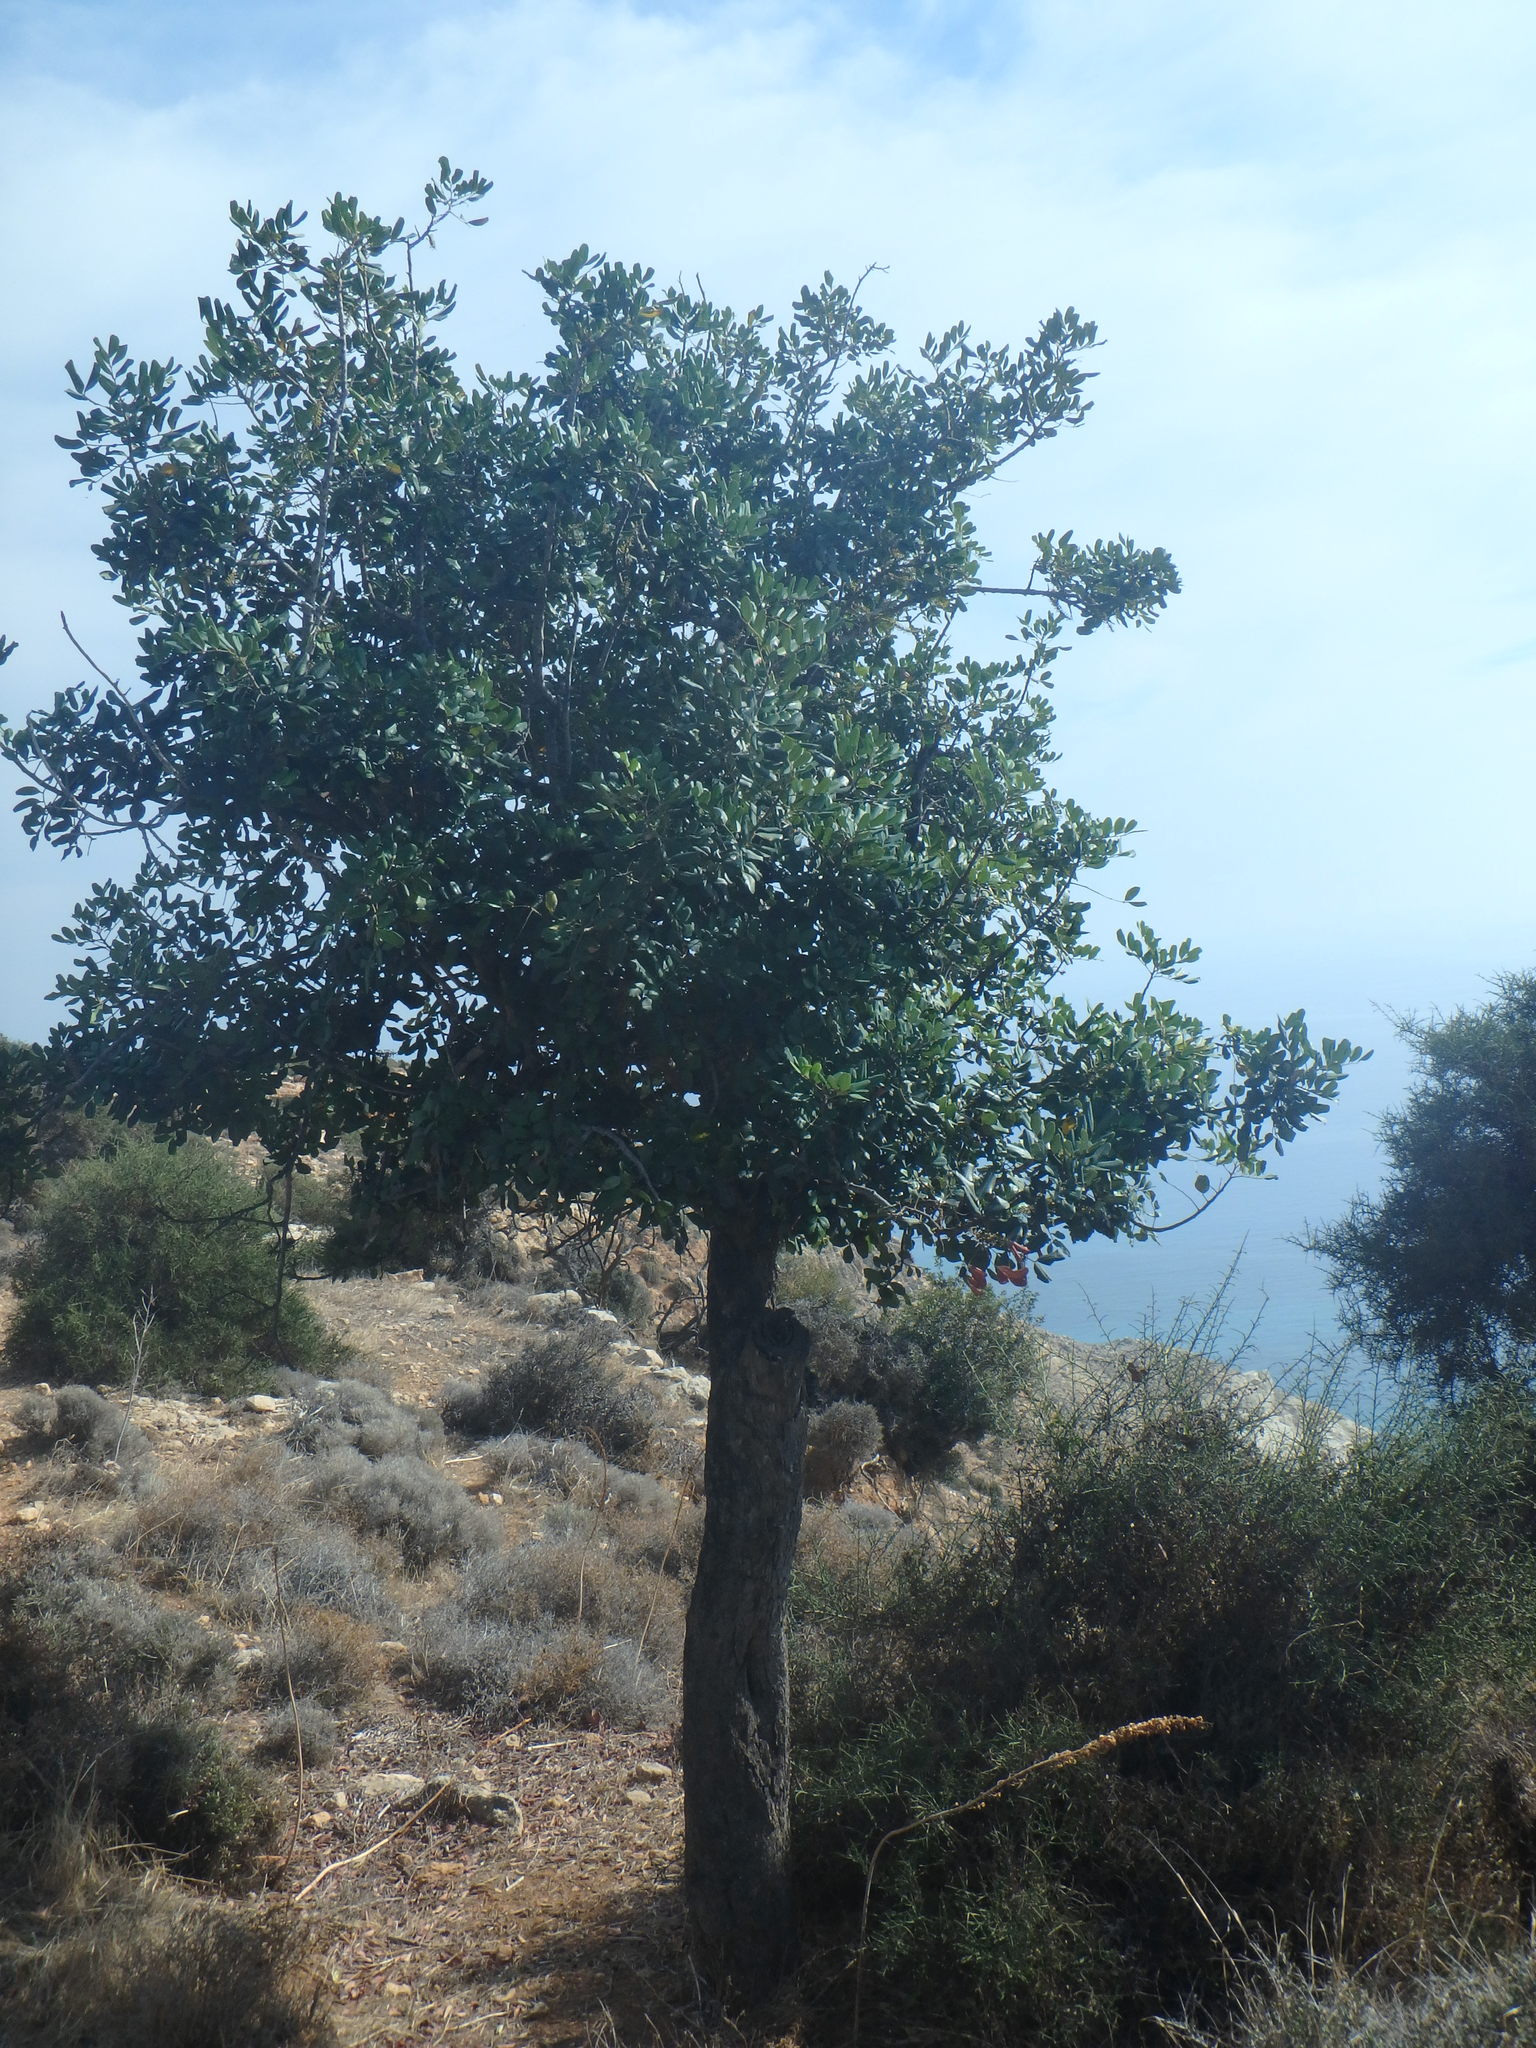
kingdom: Plantae
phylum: Tracheophyta
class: Magnoliopsida
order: Fabales
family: Fabaceae
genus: Ceratonia
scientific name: Ceratonia siliqua
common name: Carob
